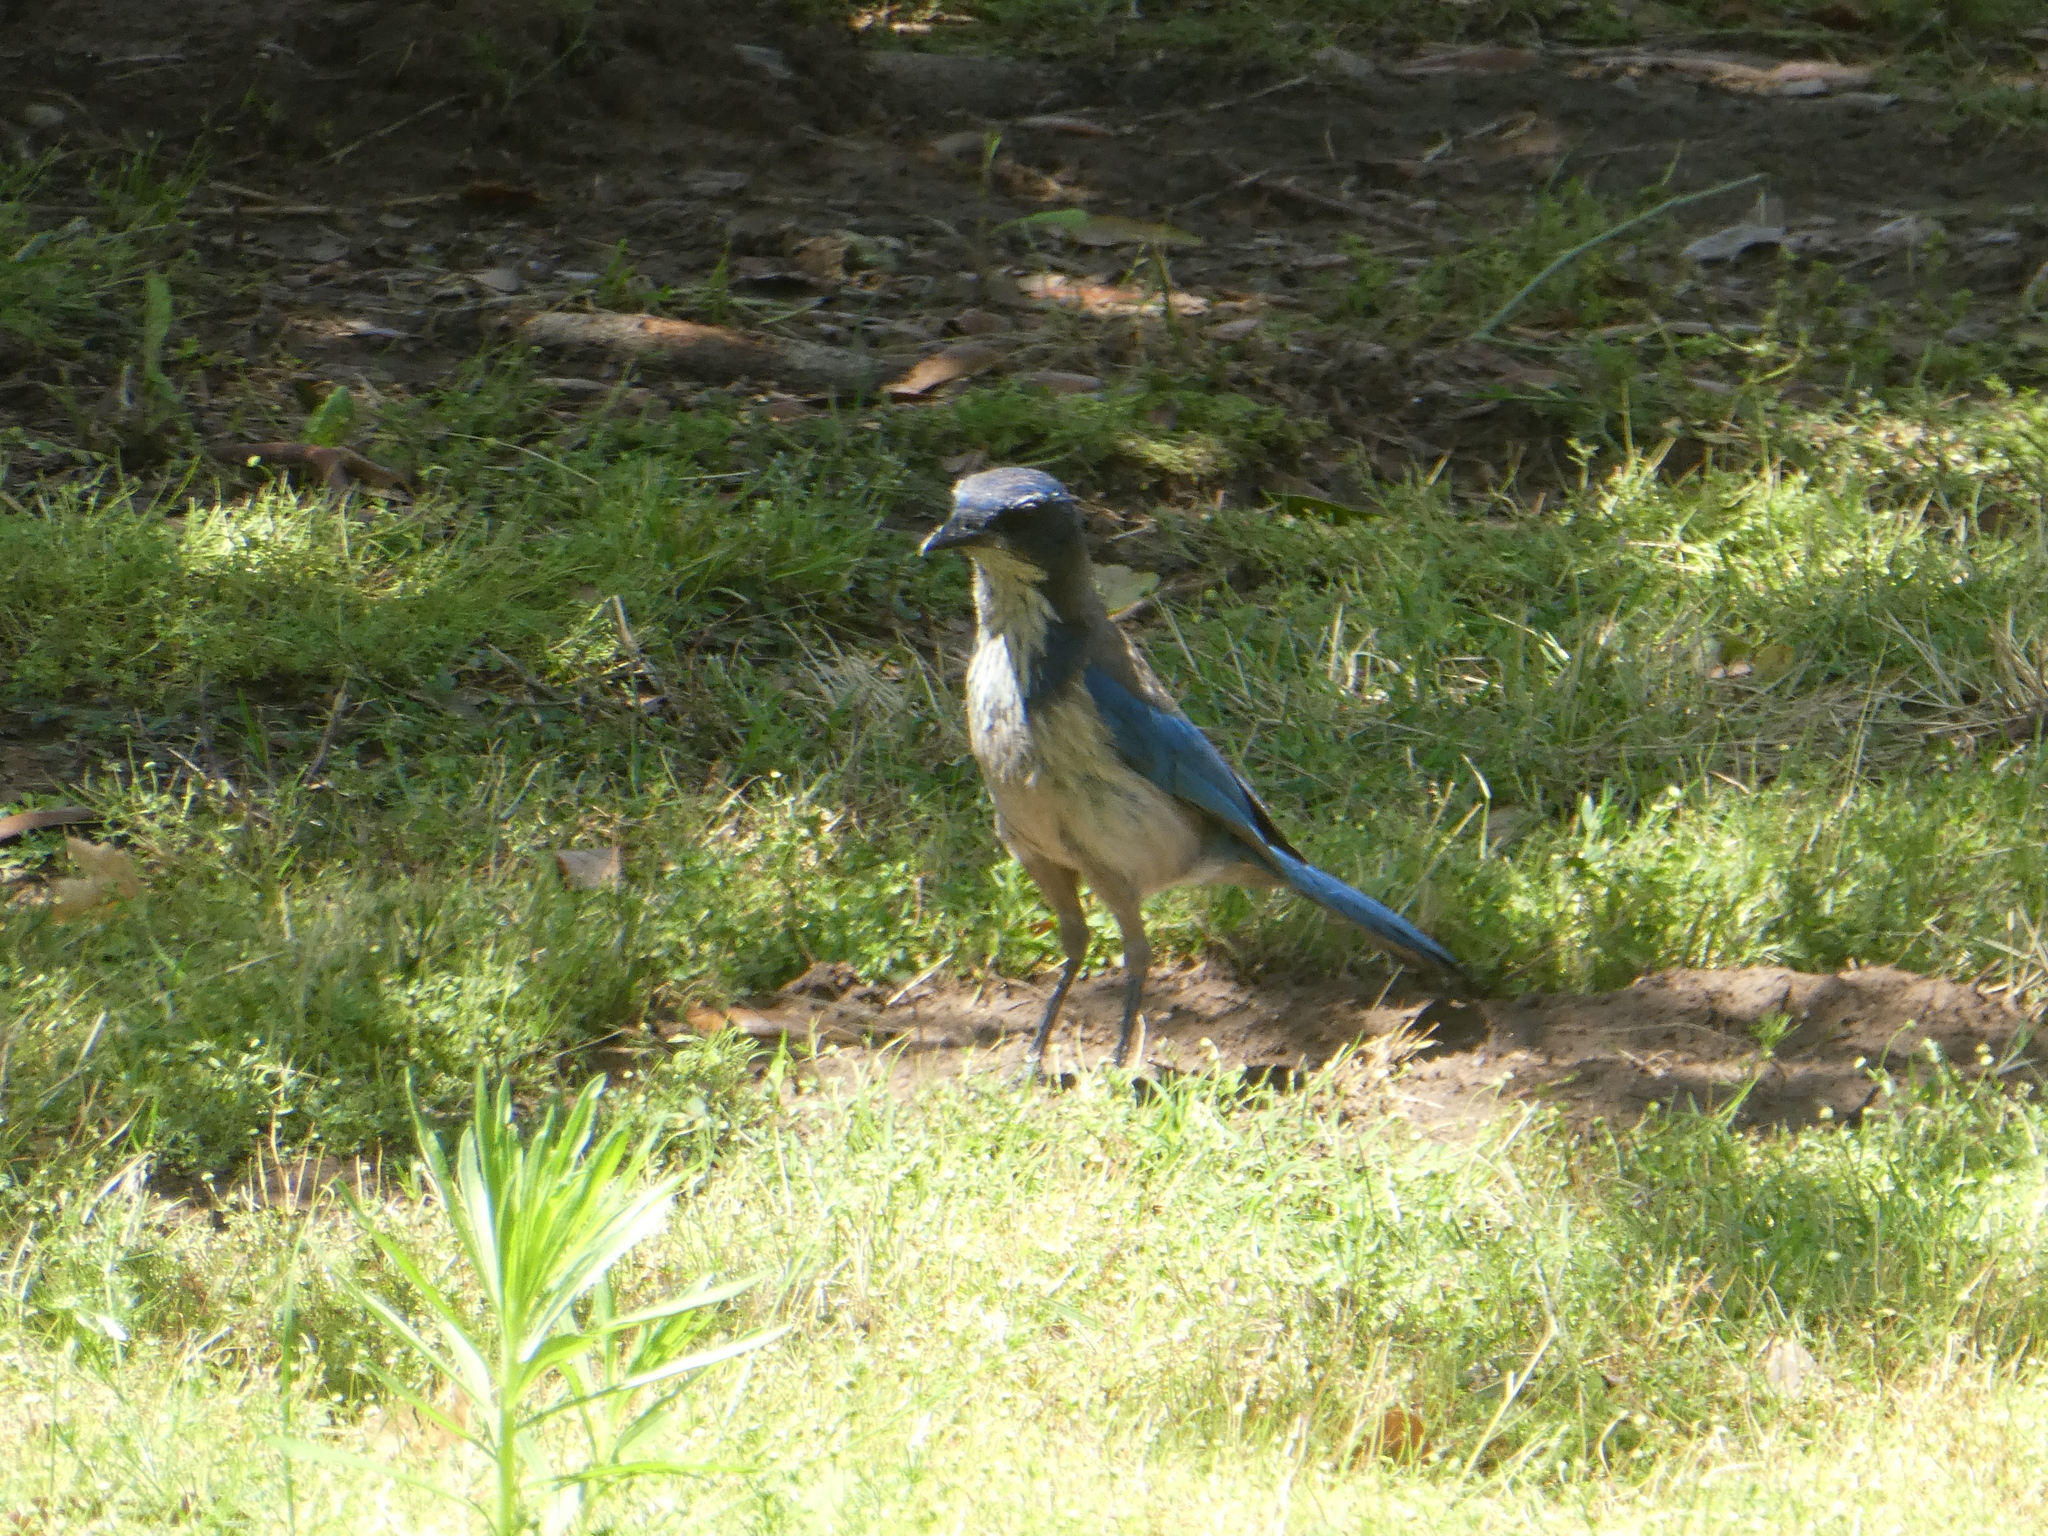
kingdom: Animalia
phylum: Chordata
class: Aves
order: Passeriformes
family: Corvidae
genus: Aphelocoma
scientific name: Aphelocoma californica
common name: California scrub-jay
